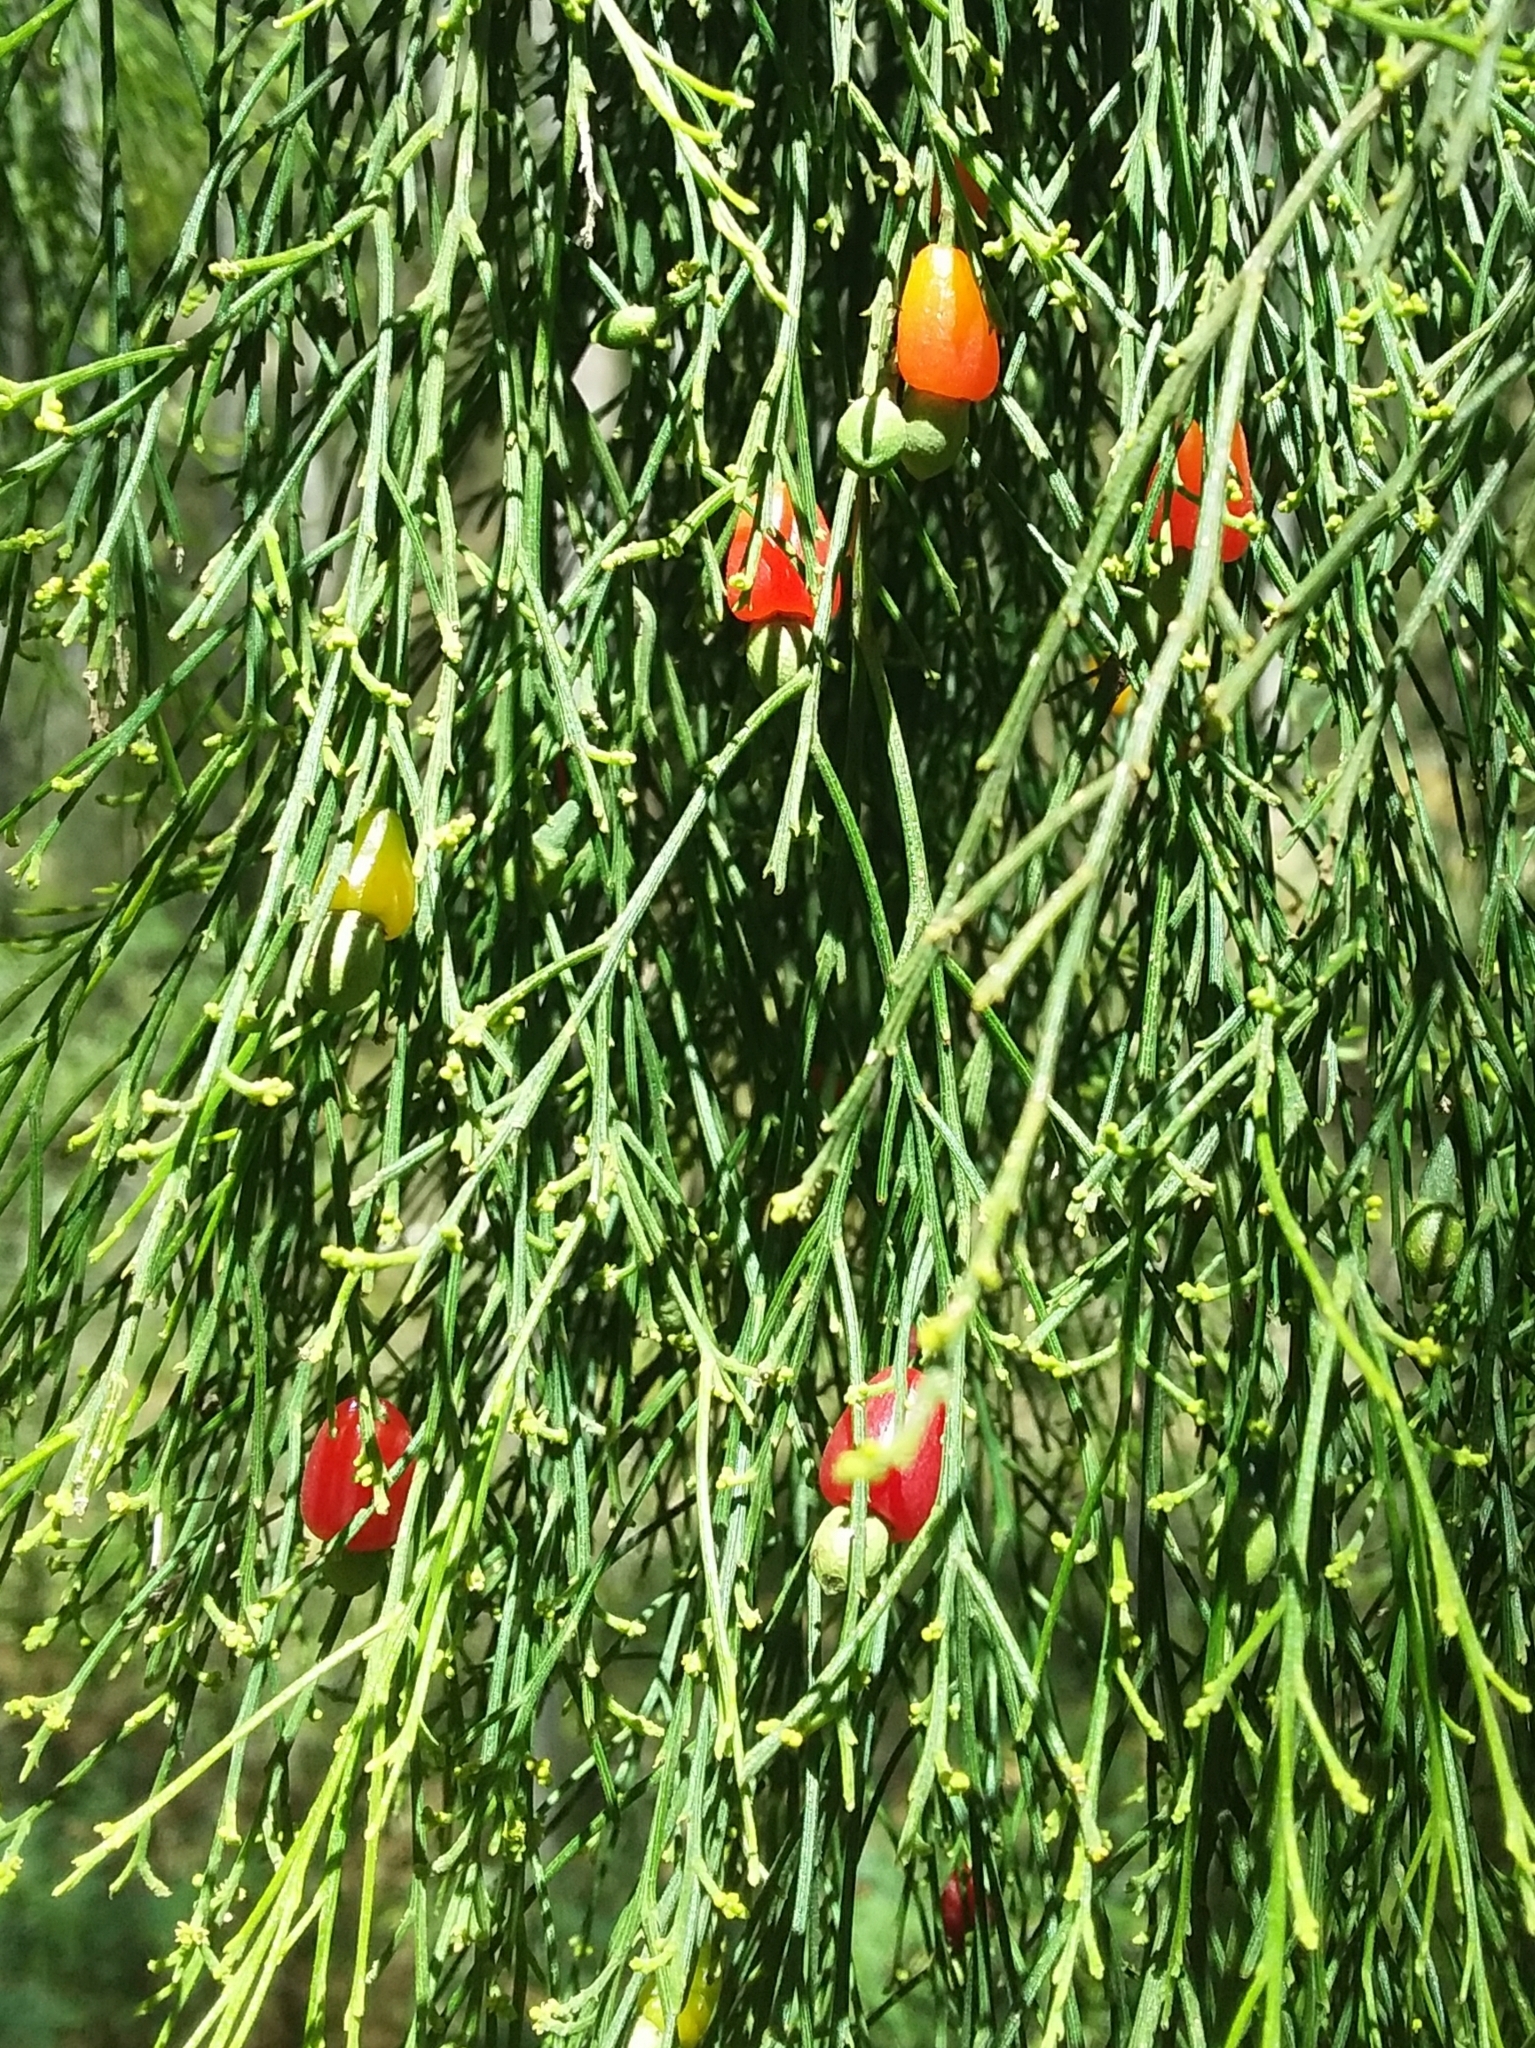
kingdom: Plantae
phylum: Tracheophyta
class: Magnoliopsida
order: Santalales
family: Santalaceae
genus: Exocarpos
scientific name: Exocarpos cupressiformis
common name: Cherry ballart
